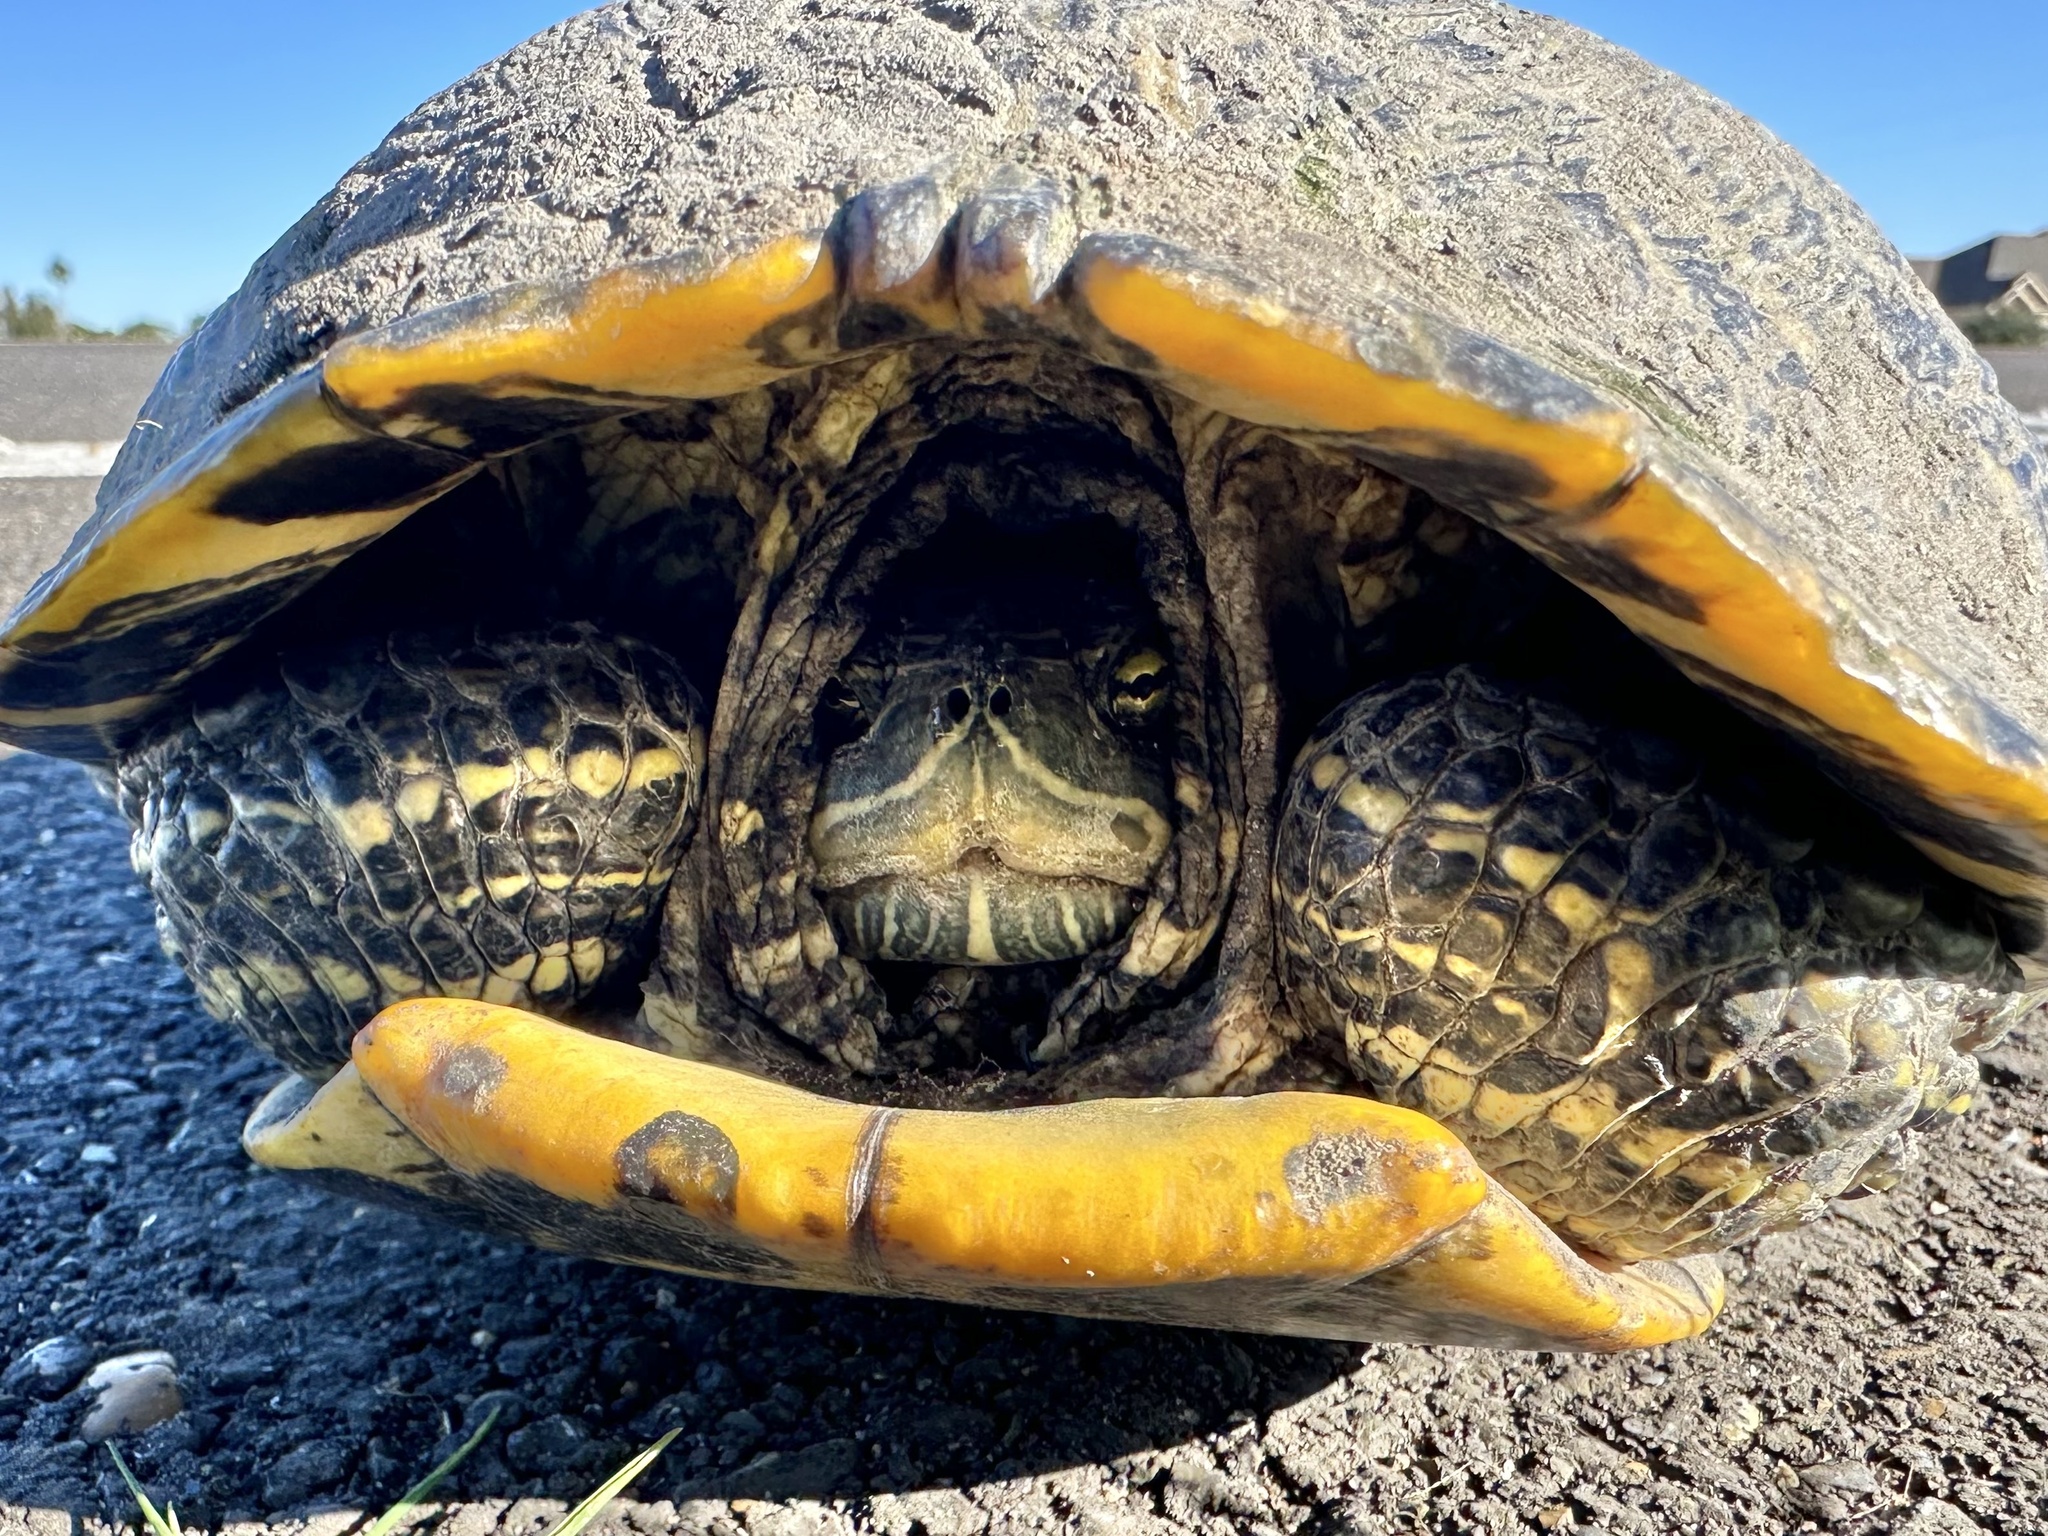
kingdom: Animalia
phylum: Chordata
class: Testudines
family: Emydidae
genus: Trachemys
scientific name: Trachemys scripta
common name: Slider
